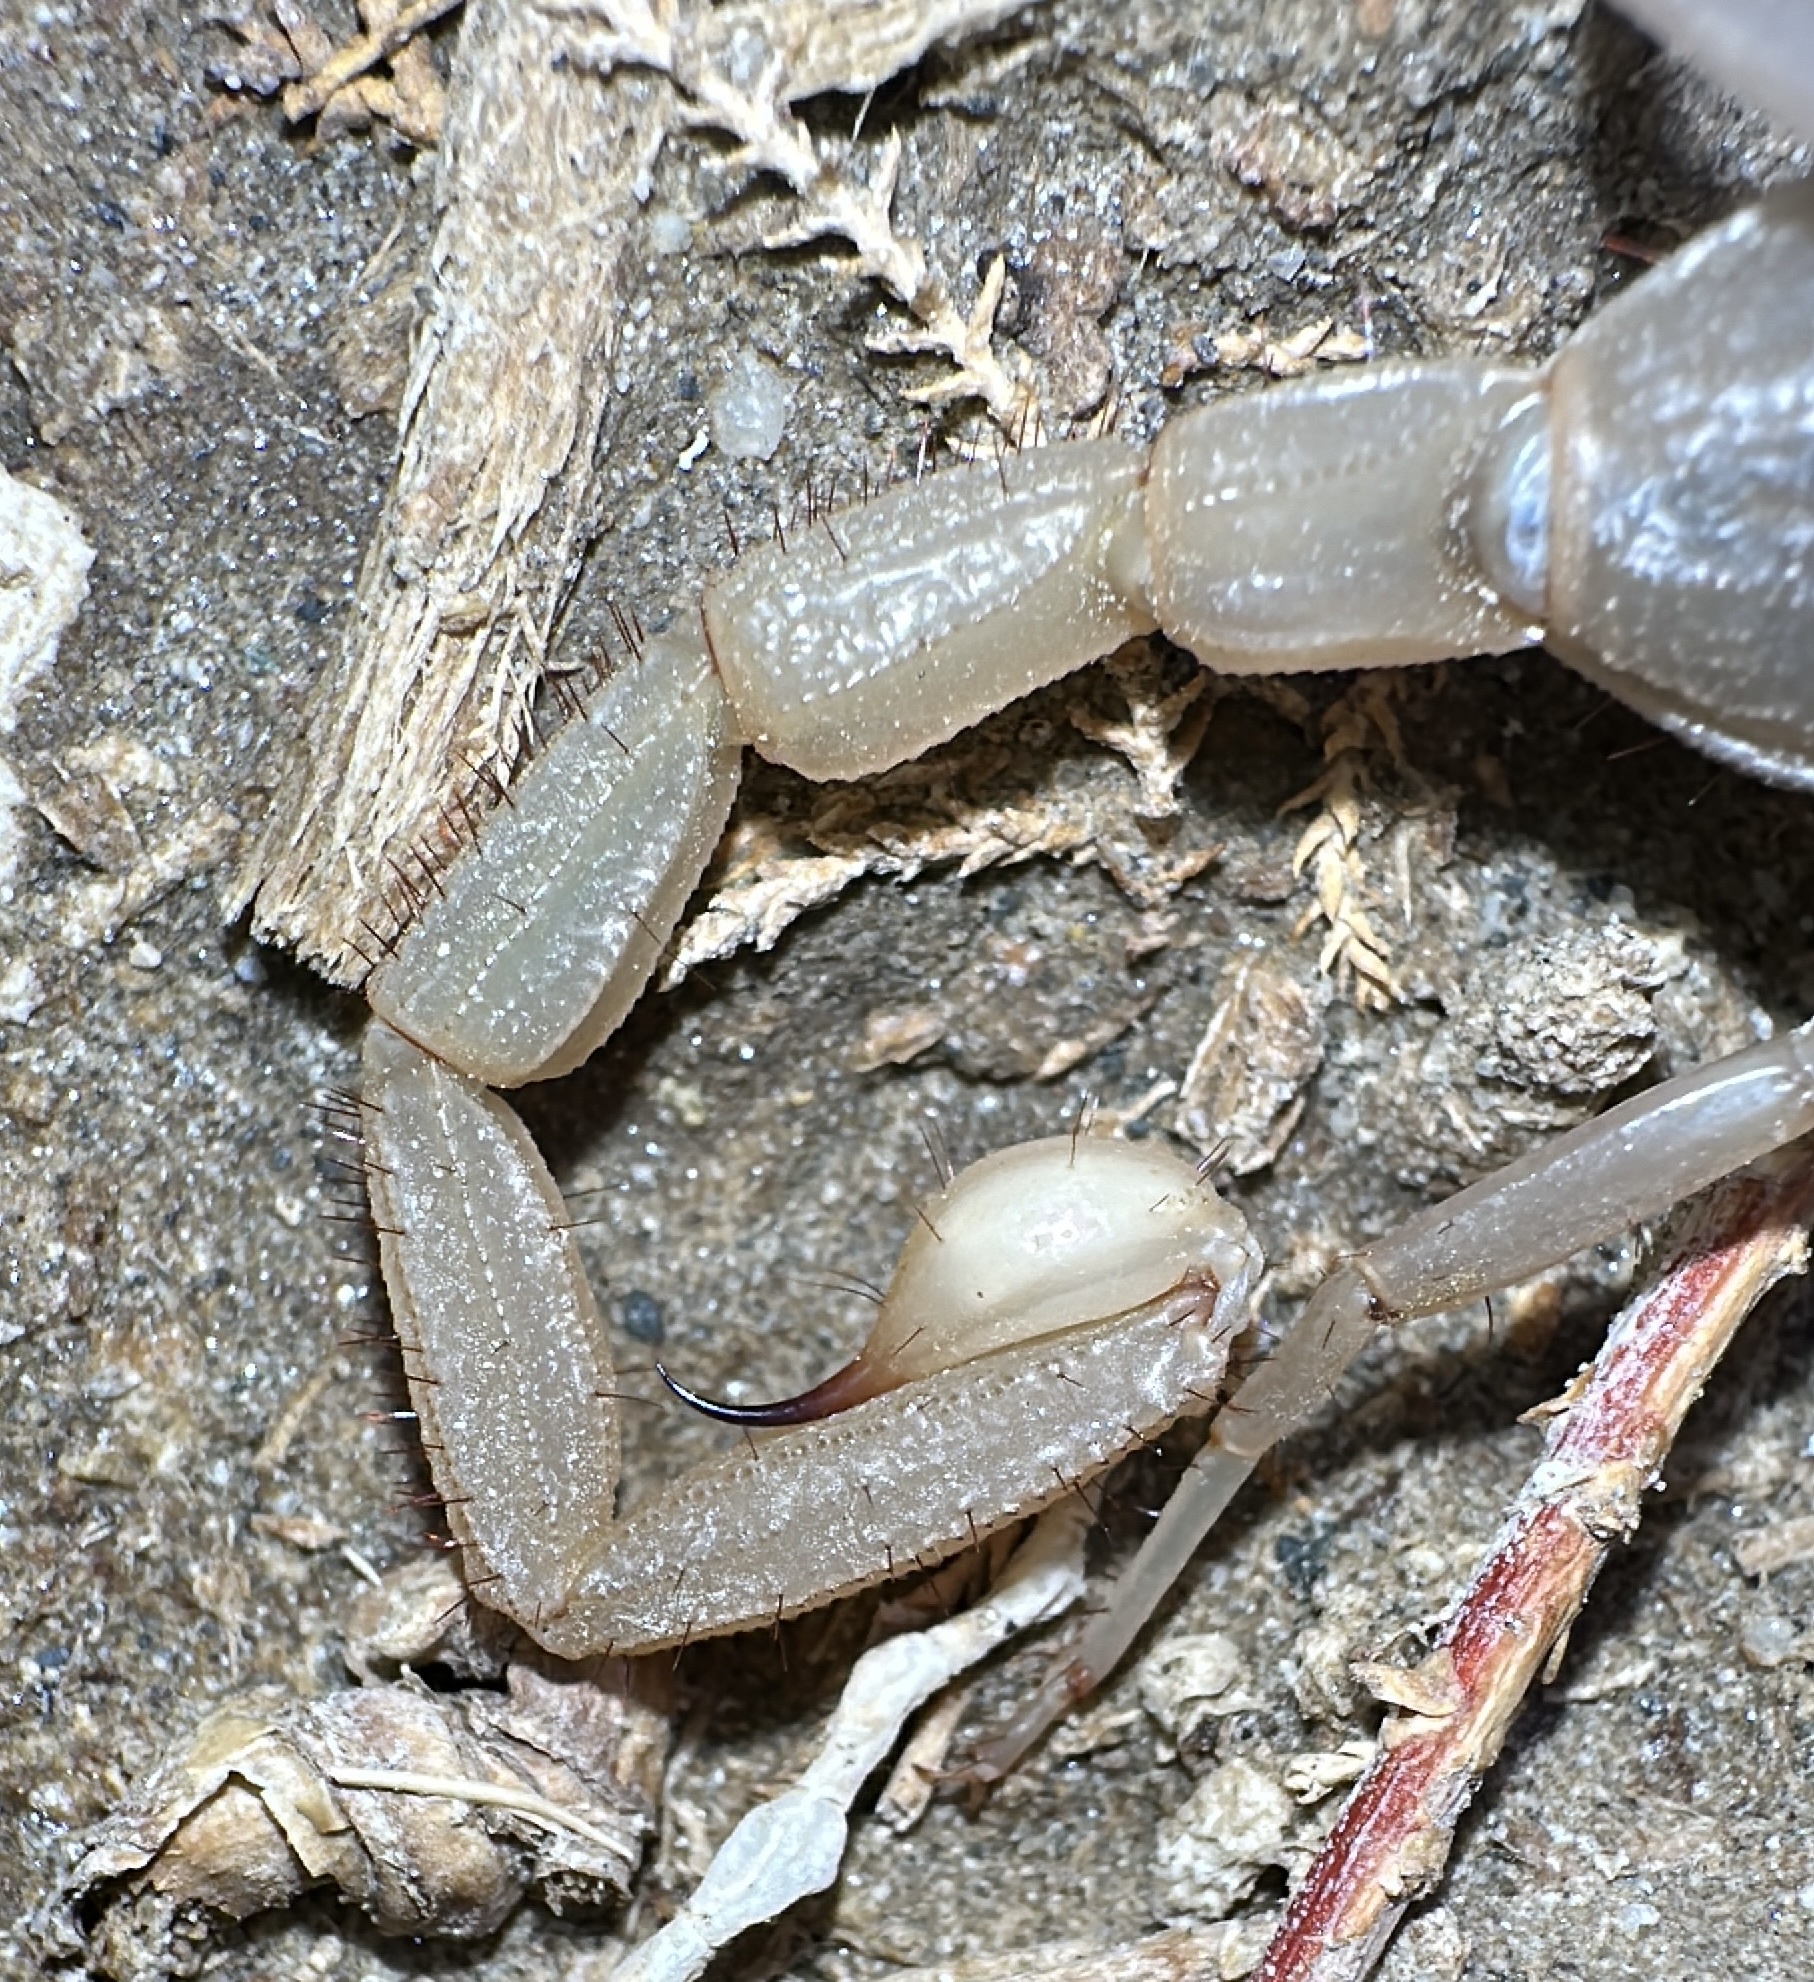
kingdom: Animalia
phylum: Arthropoda
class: Arachnida
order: Scorpiones
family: Vaejovidae
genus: Smeringurus
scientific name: Smeringurus vachoni
